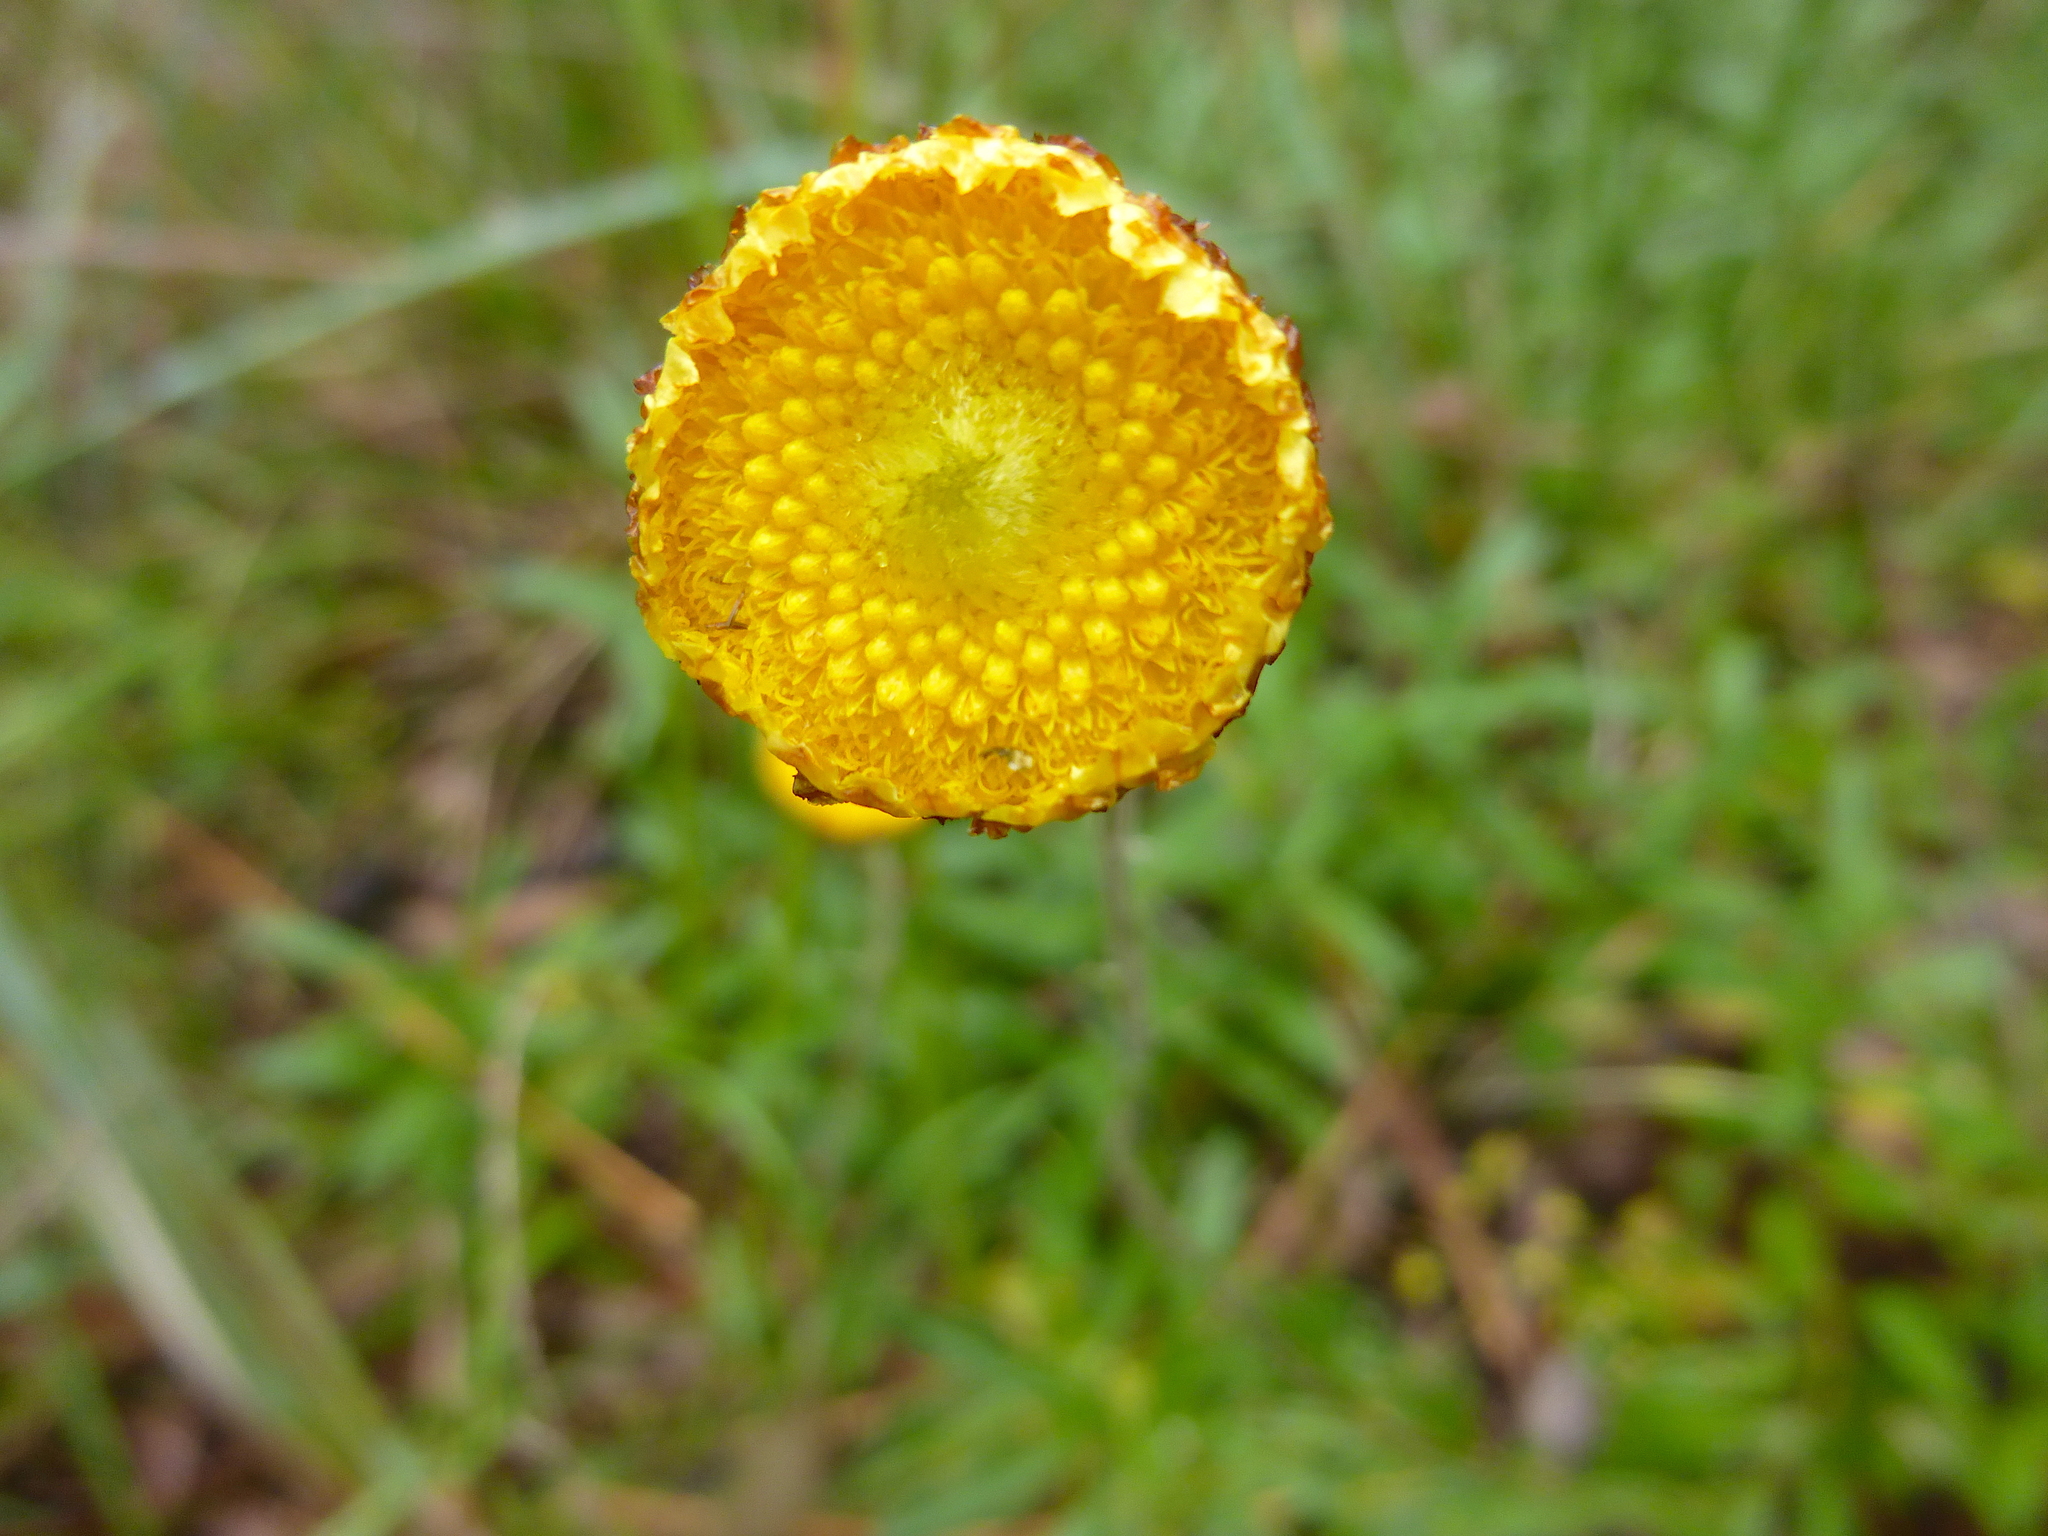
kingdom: Plantae
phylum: Tracheophyta
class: Magnoliopsida
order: Asterales
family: Asteraceae
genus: Coronidium
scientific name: Coronidium scorpioides
